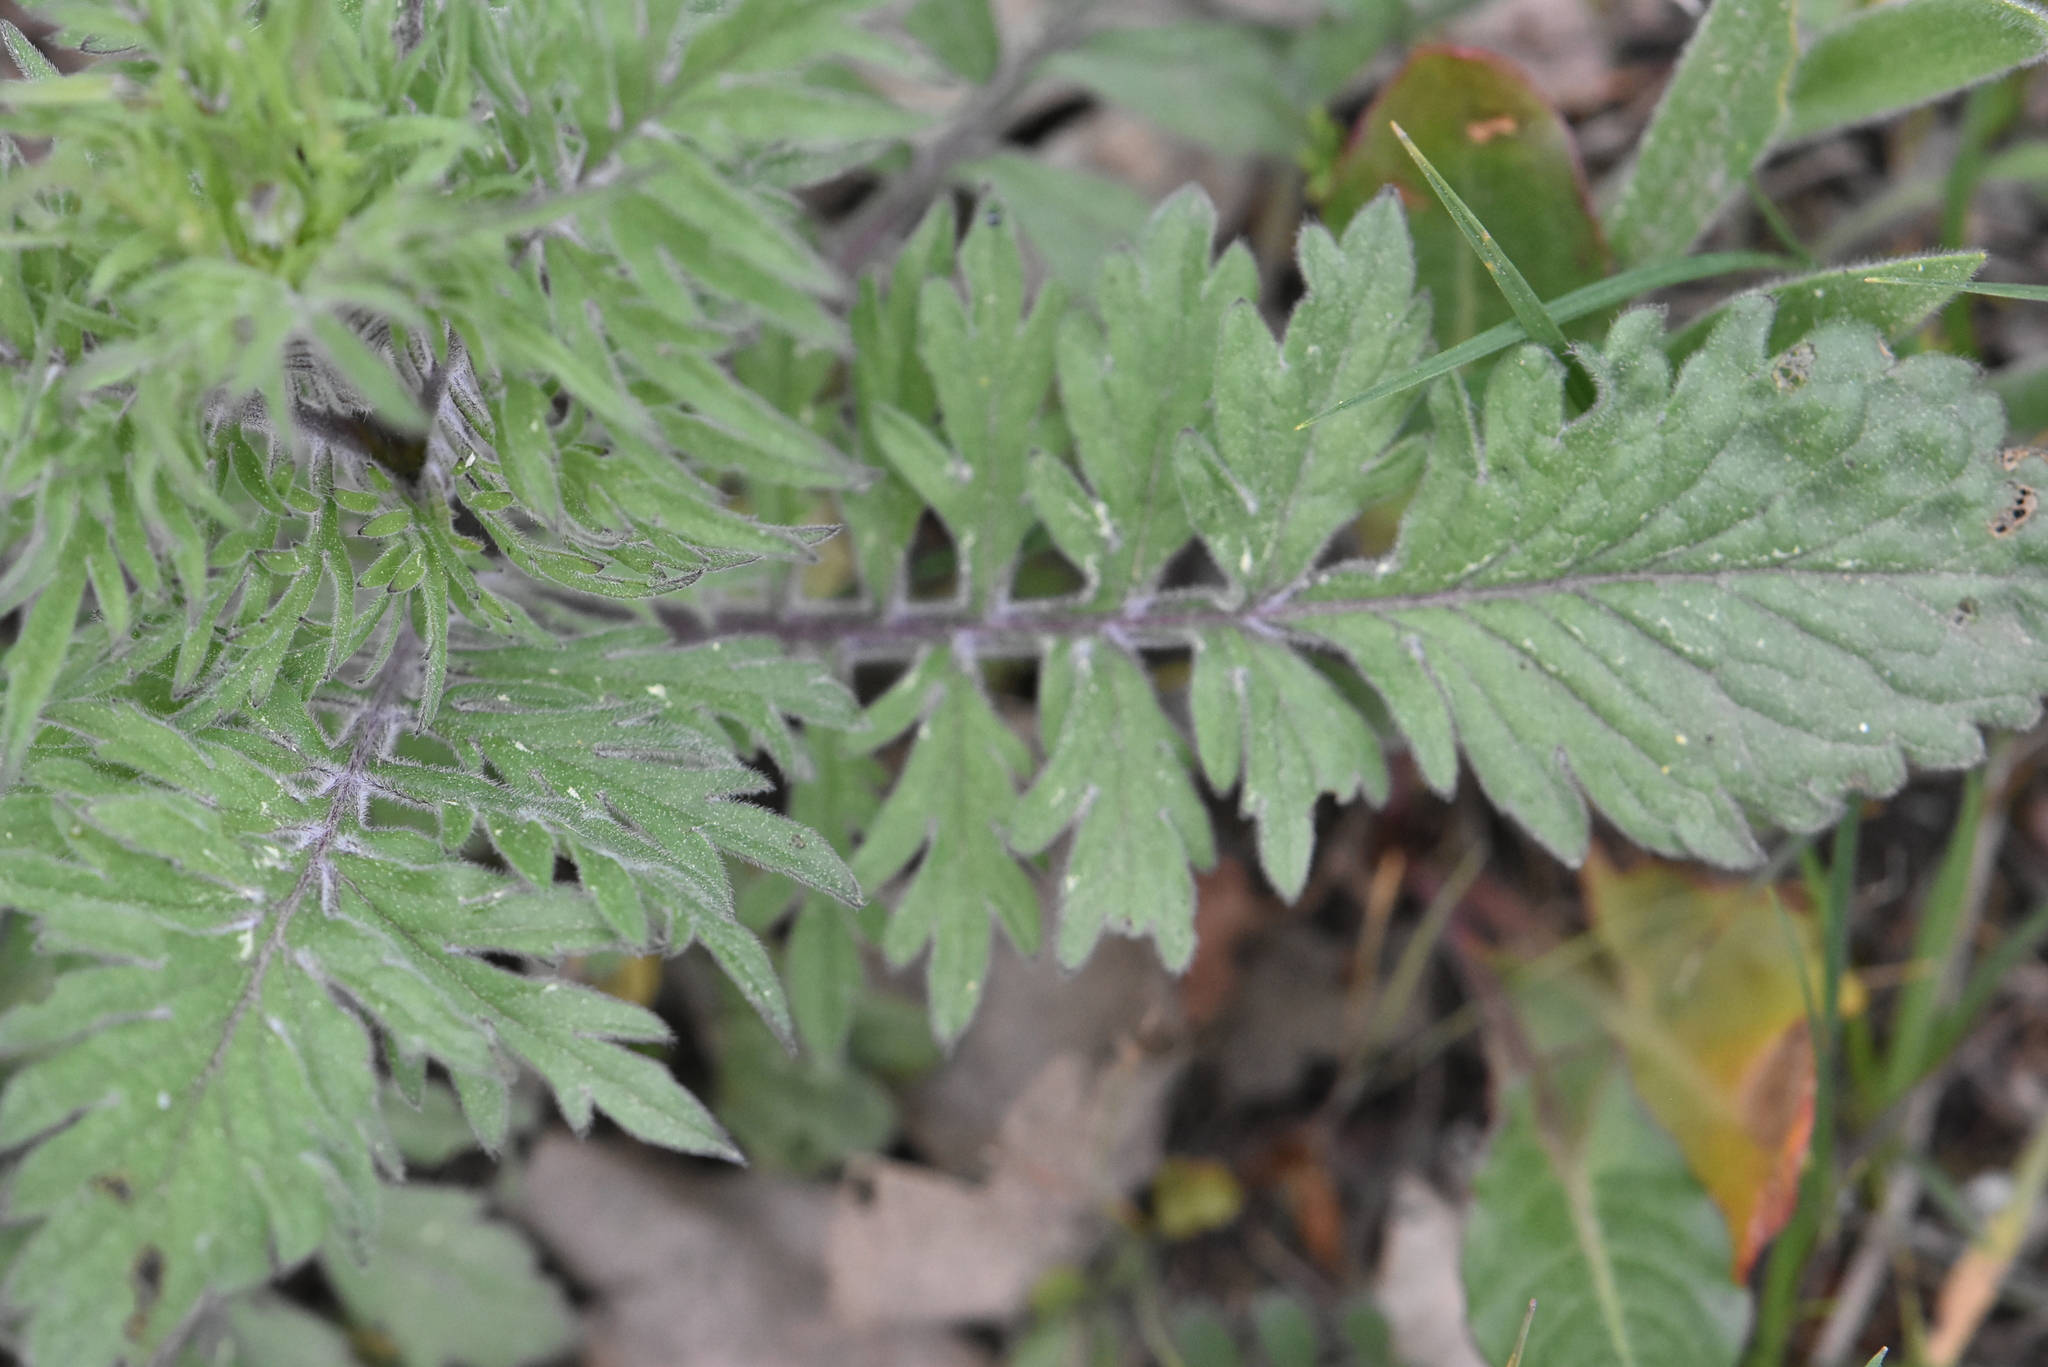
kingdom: Plantae
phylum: Tracheophyta
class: Magnoliopsida
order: Dipsacales
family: Caprifoliaceae
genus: Scabiosa
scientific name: Scabiosa ochroleuca
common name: Cream pincushions
